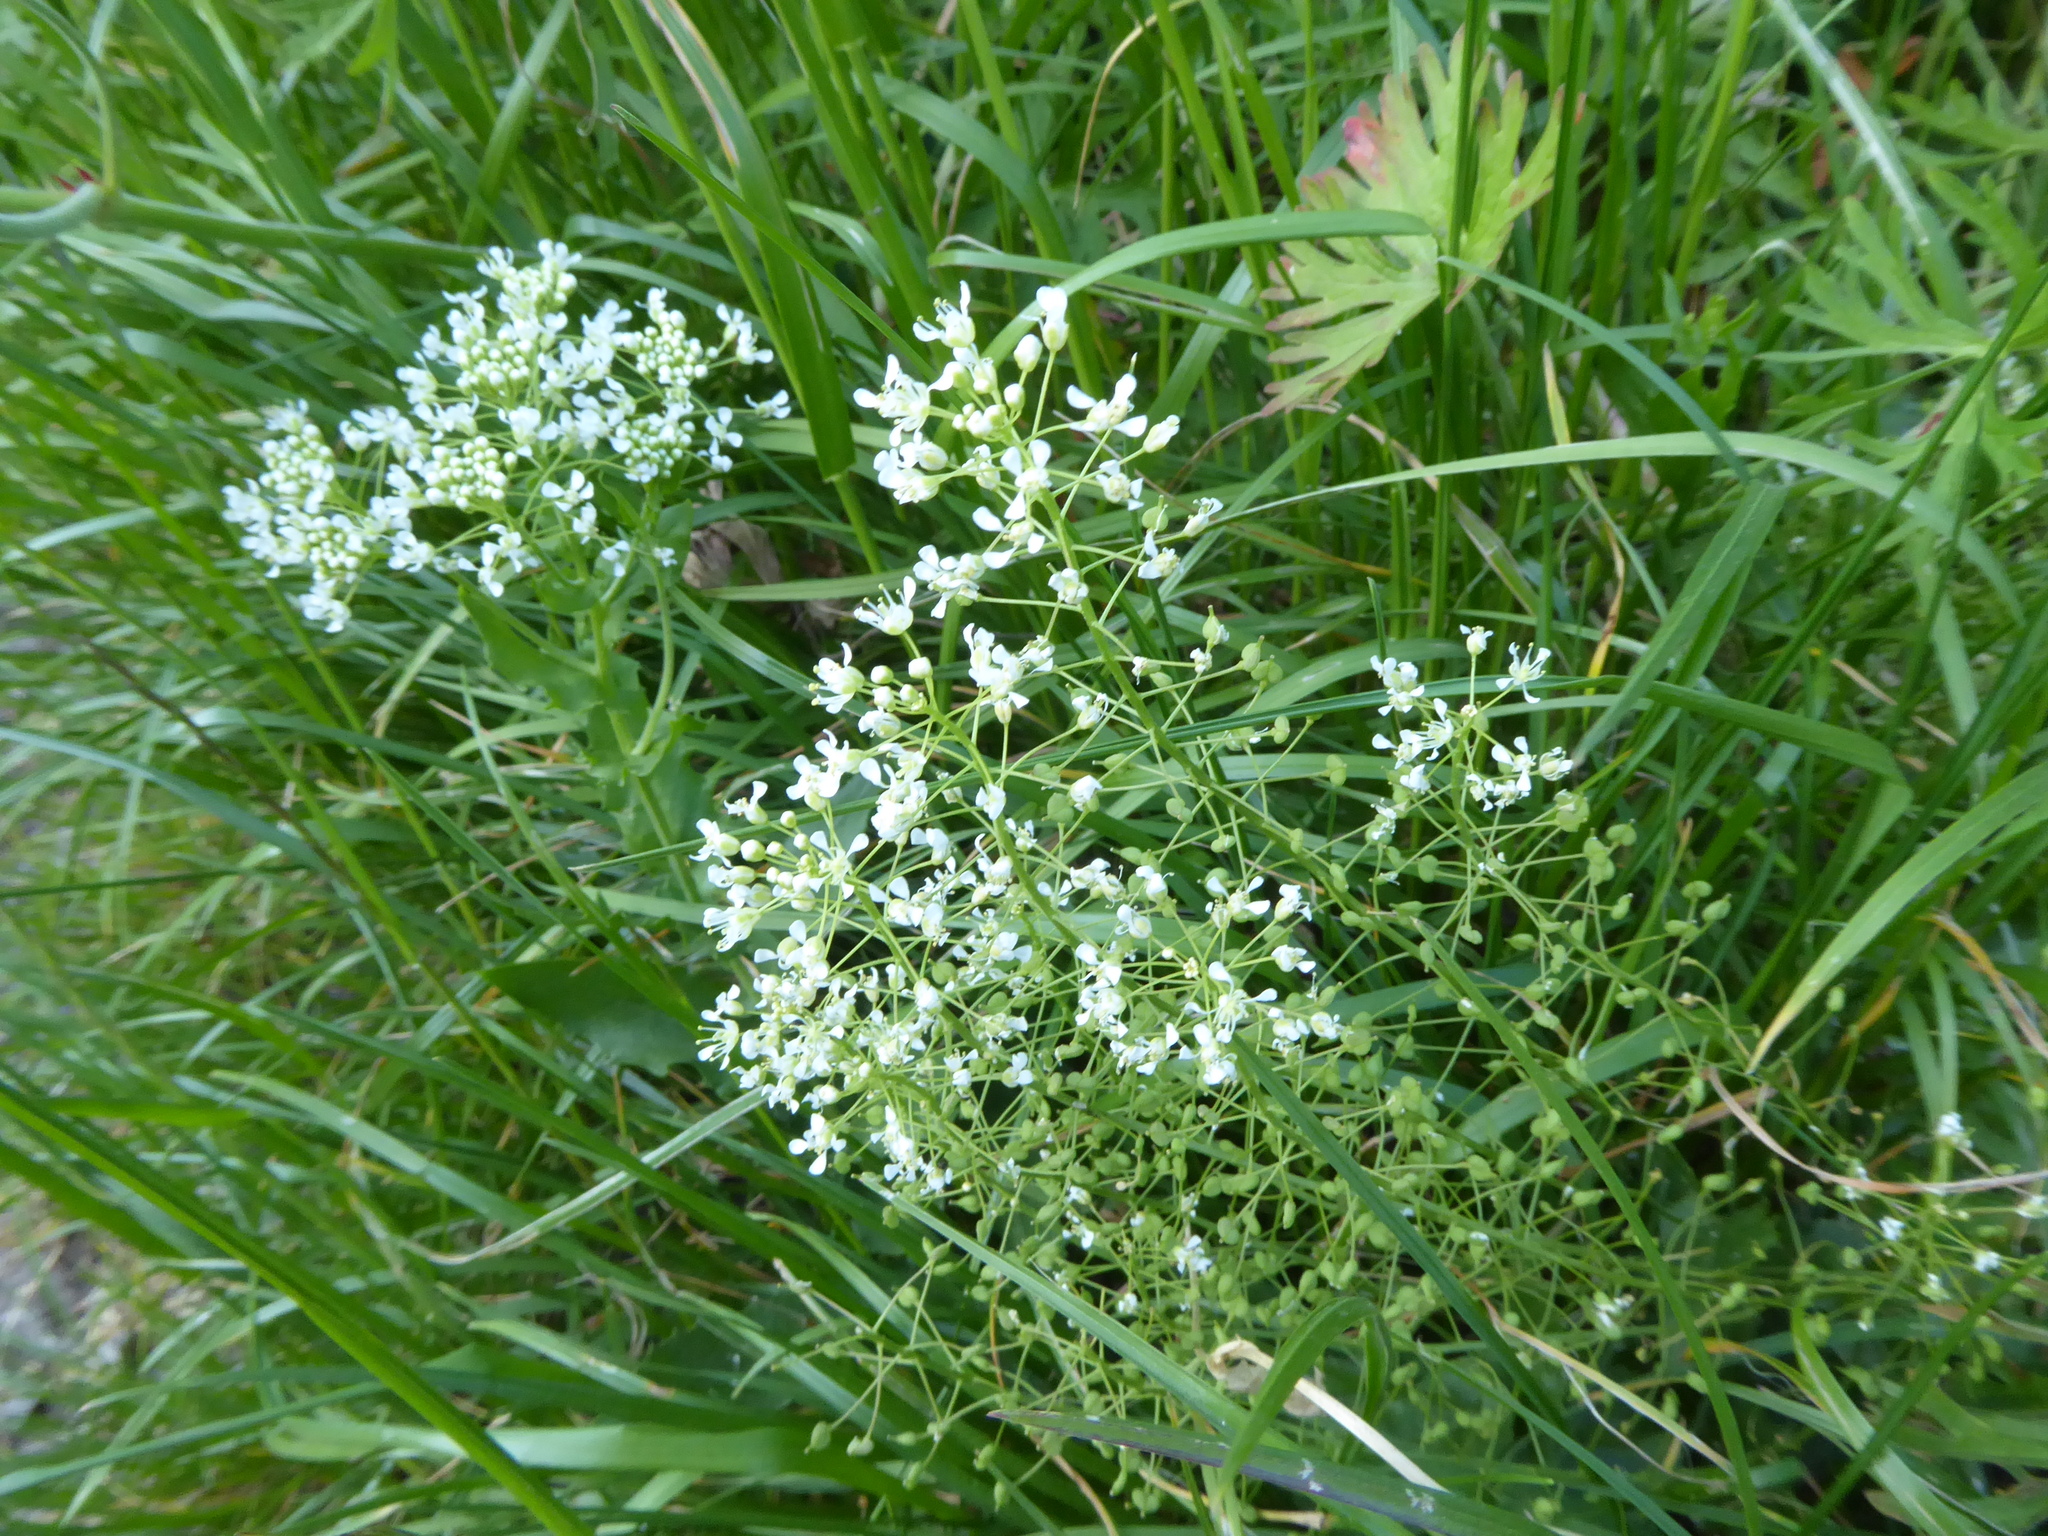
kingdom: Plantae
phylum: Tracheophyta
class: Magnoliopsida
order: Brassicales
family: Brassicaceae
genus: Lepidium
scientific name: Lepidium draba
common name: Hoary cress
